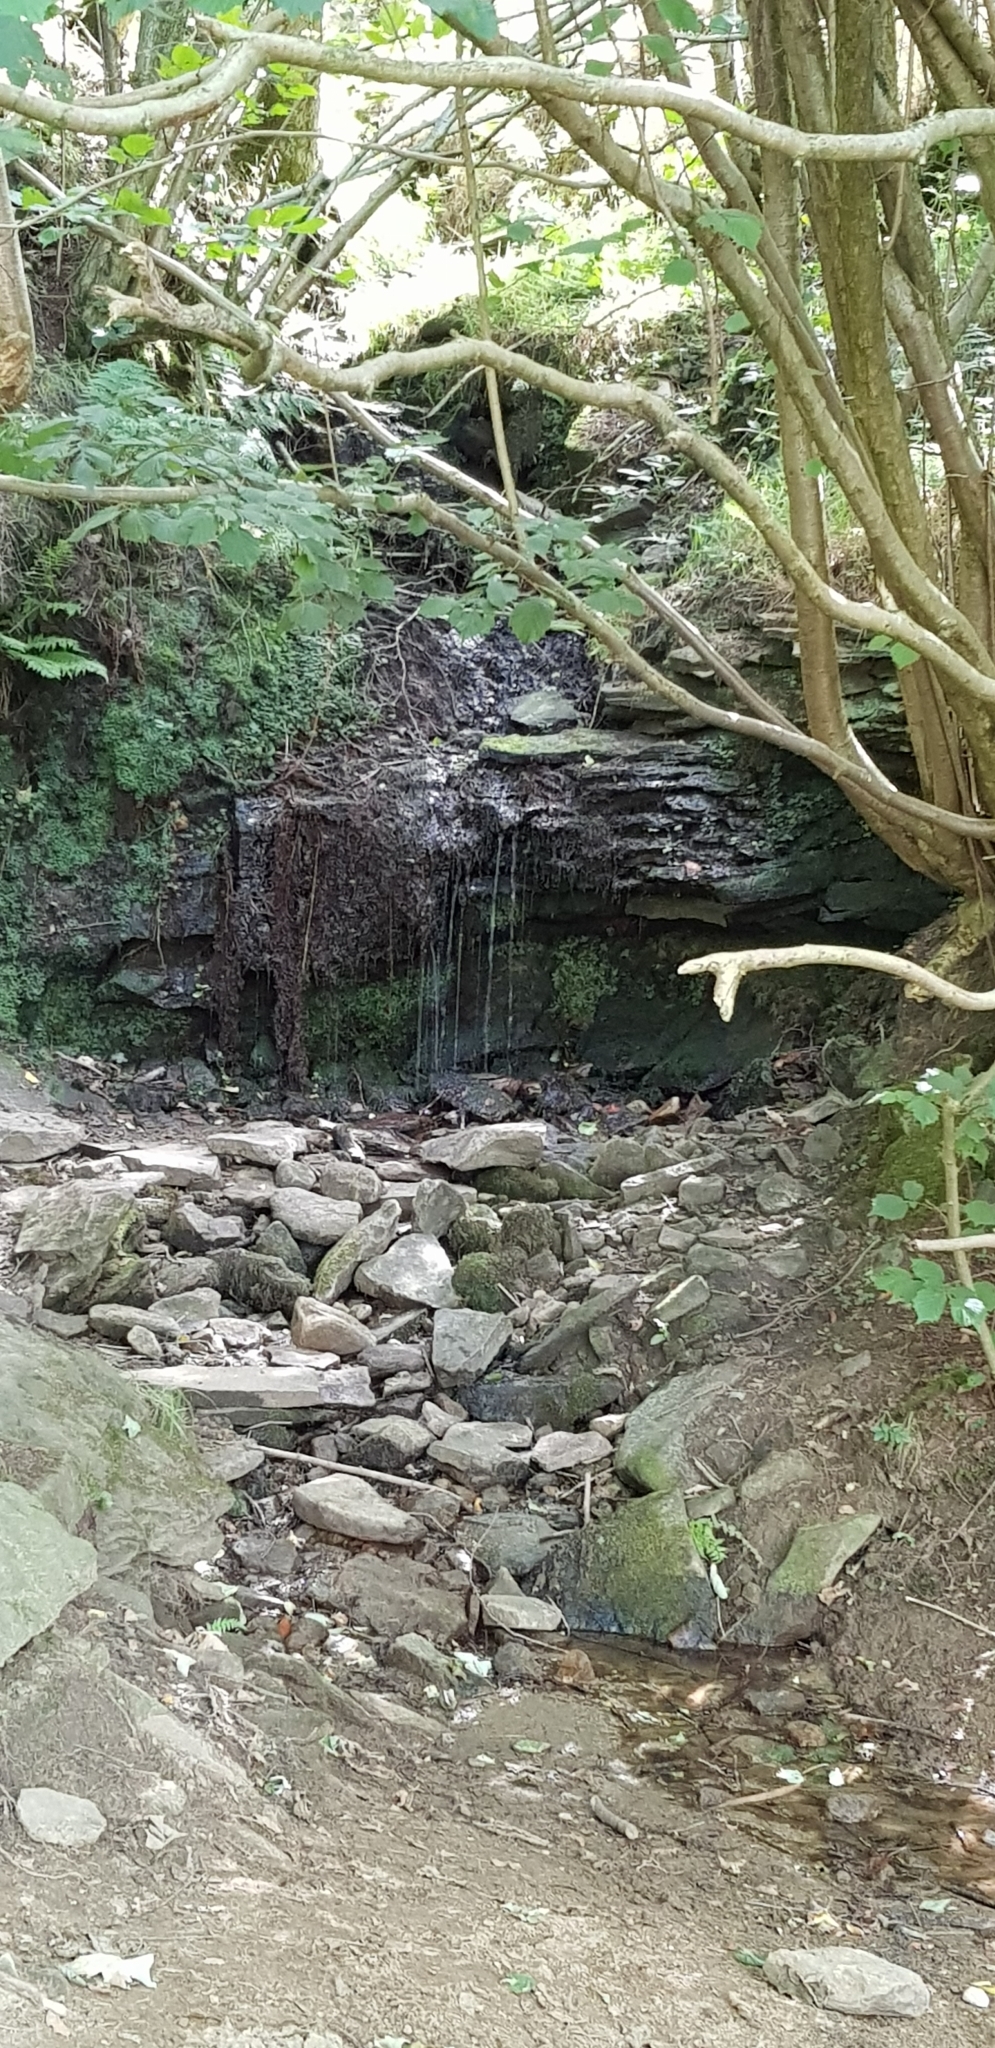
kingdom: Plantae
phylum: Marchantiophyta
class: Jungermanniopsida
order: Jungermanniales
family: Lophocoleaceae
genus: Chiloscyphus
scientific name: Chiloscyphus polyanthos
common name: Square-leaved crestwort
